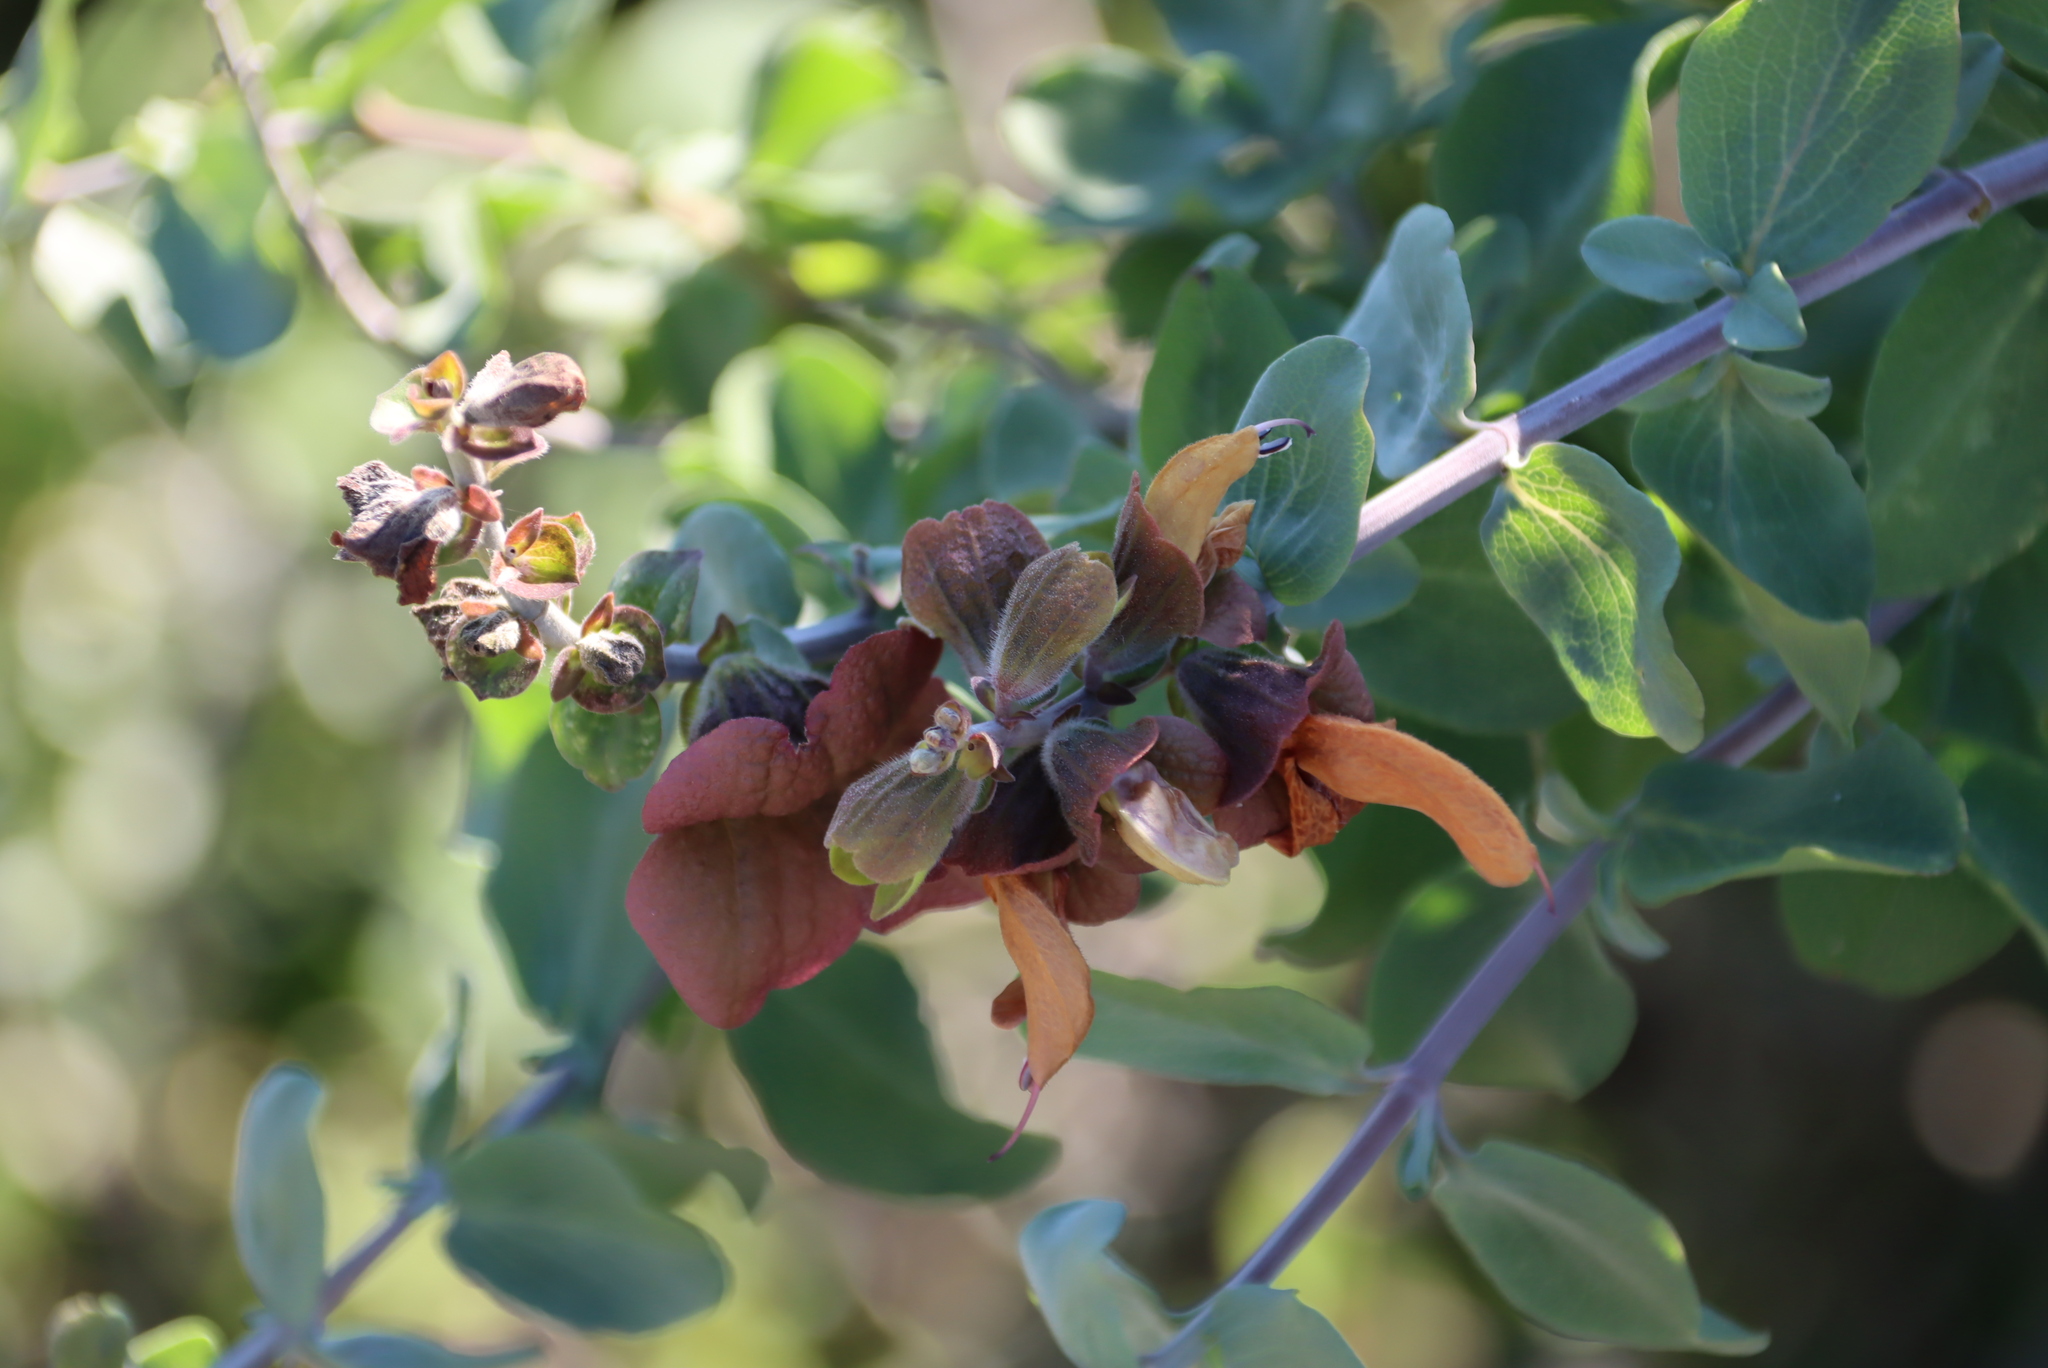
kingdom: Plantae
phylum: Tracheophyta
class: Magnoliopsida
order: Lamiales
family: Lamiaceae
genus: Salvia
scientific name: Salvia aurea
